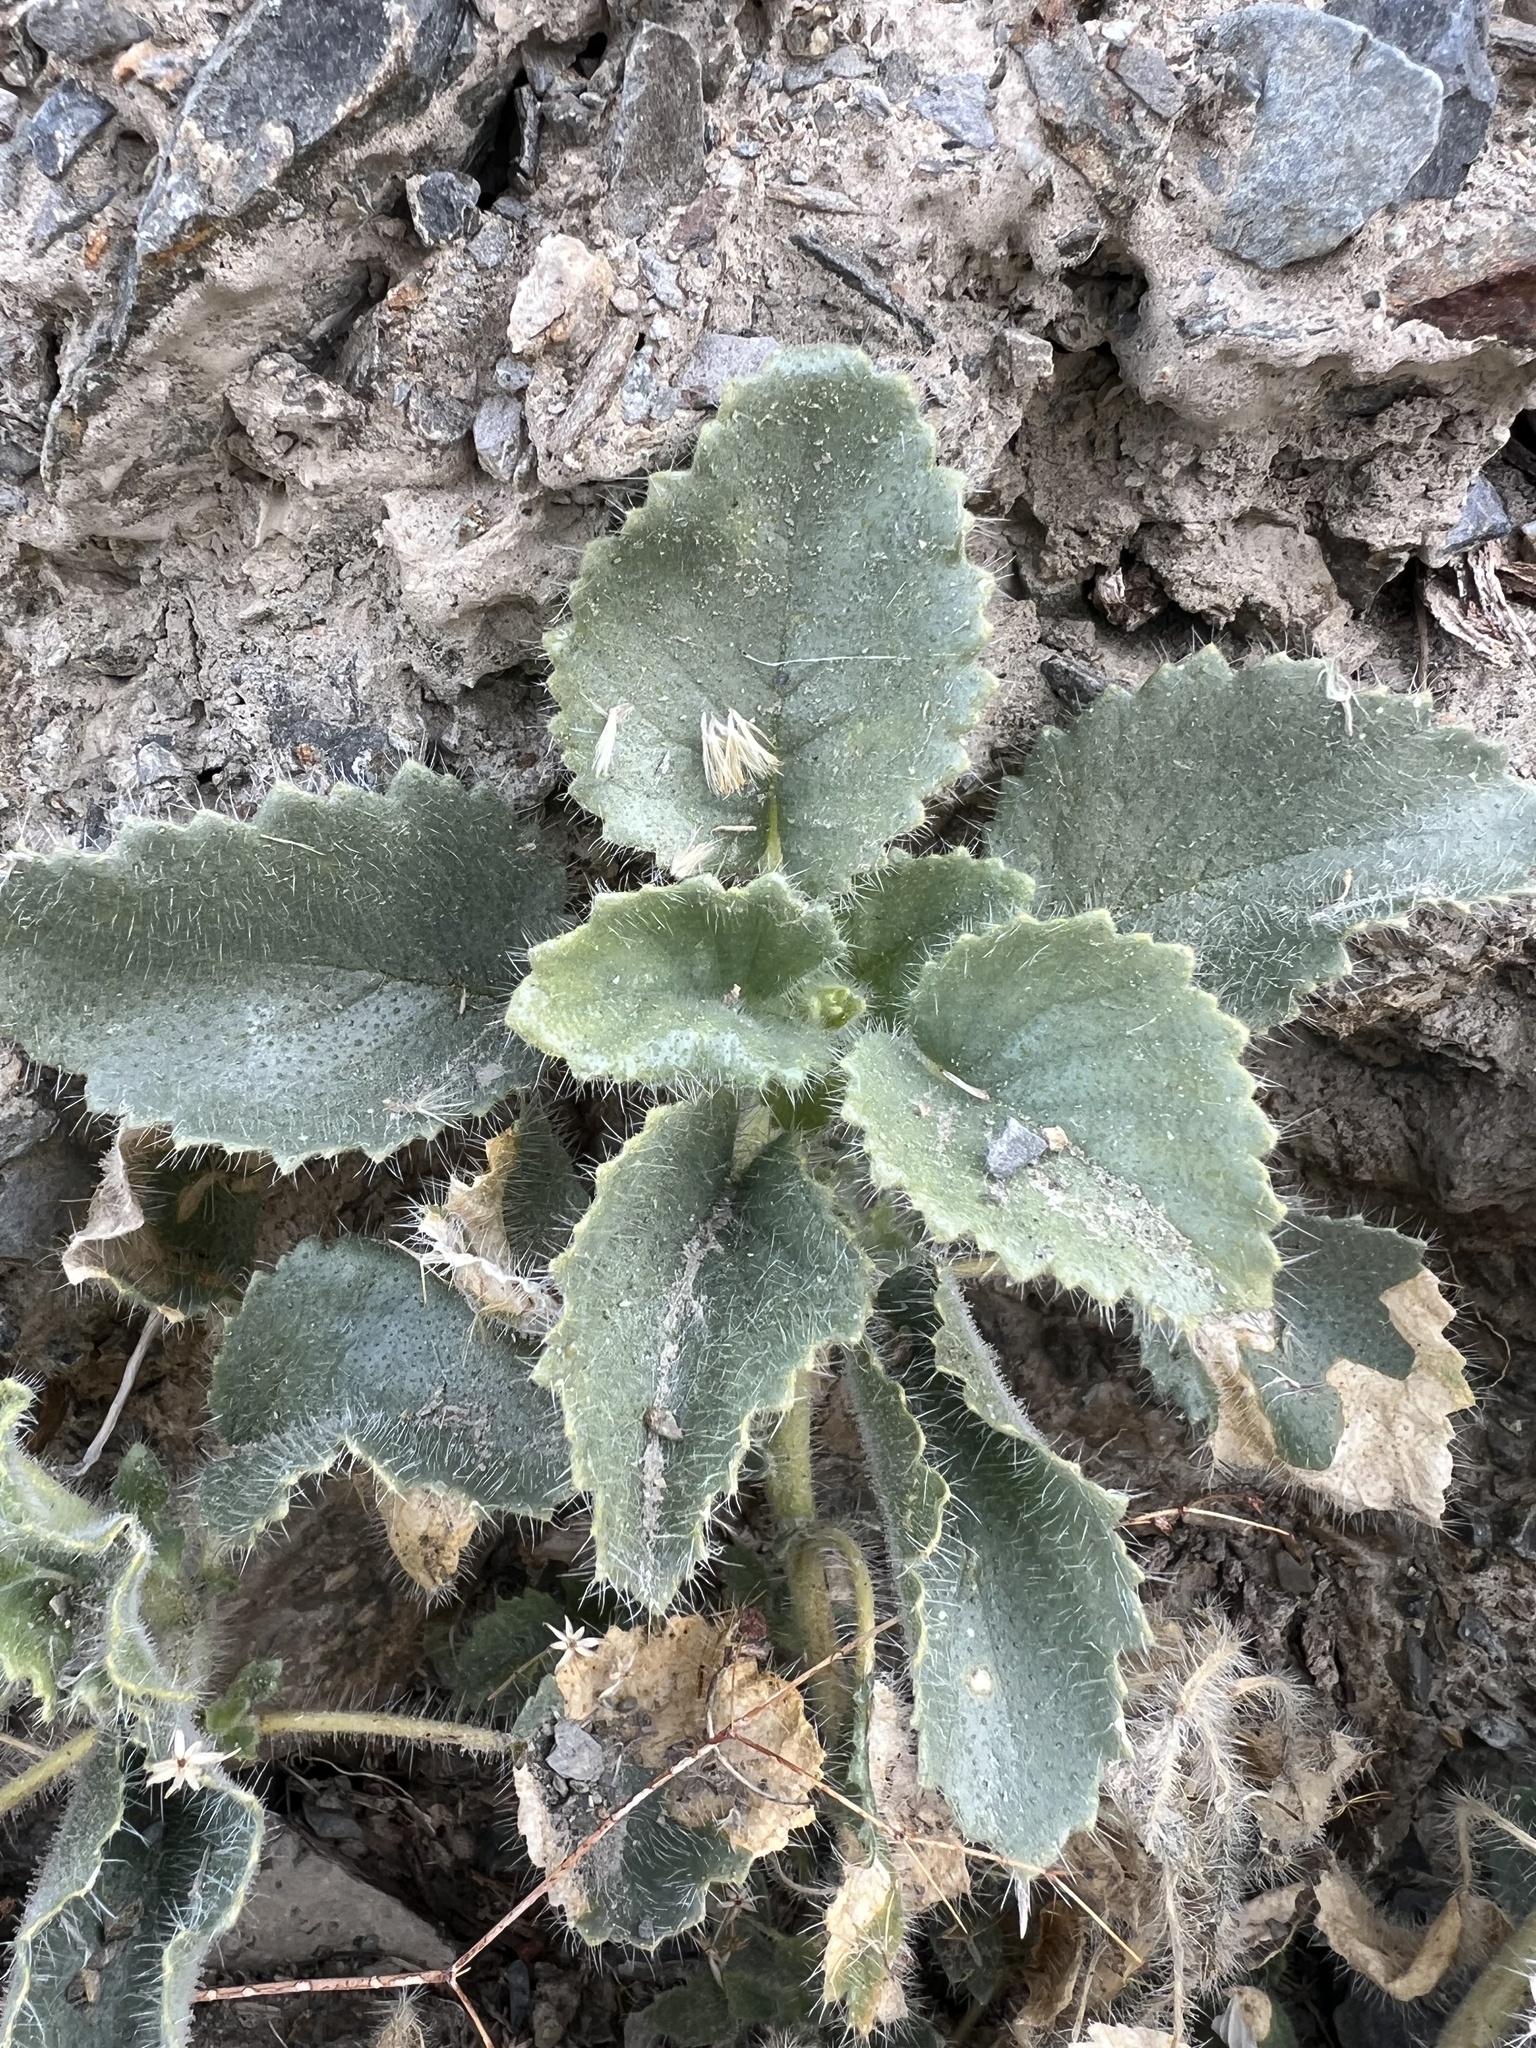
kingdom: Plantae
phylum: Tracheophyta
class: Magnoliopsida
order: Cornales
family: Loasaceae
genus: Eucnide
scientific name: Eucnide urens
